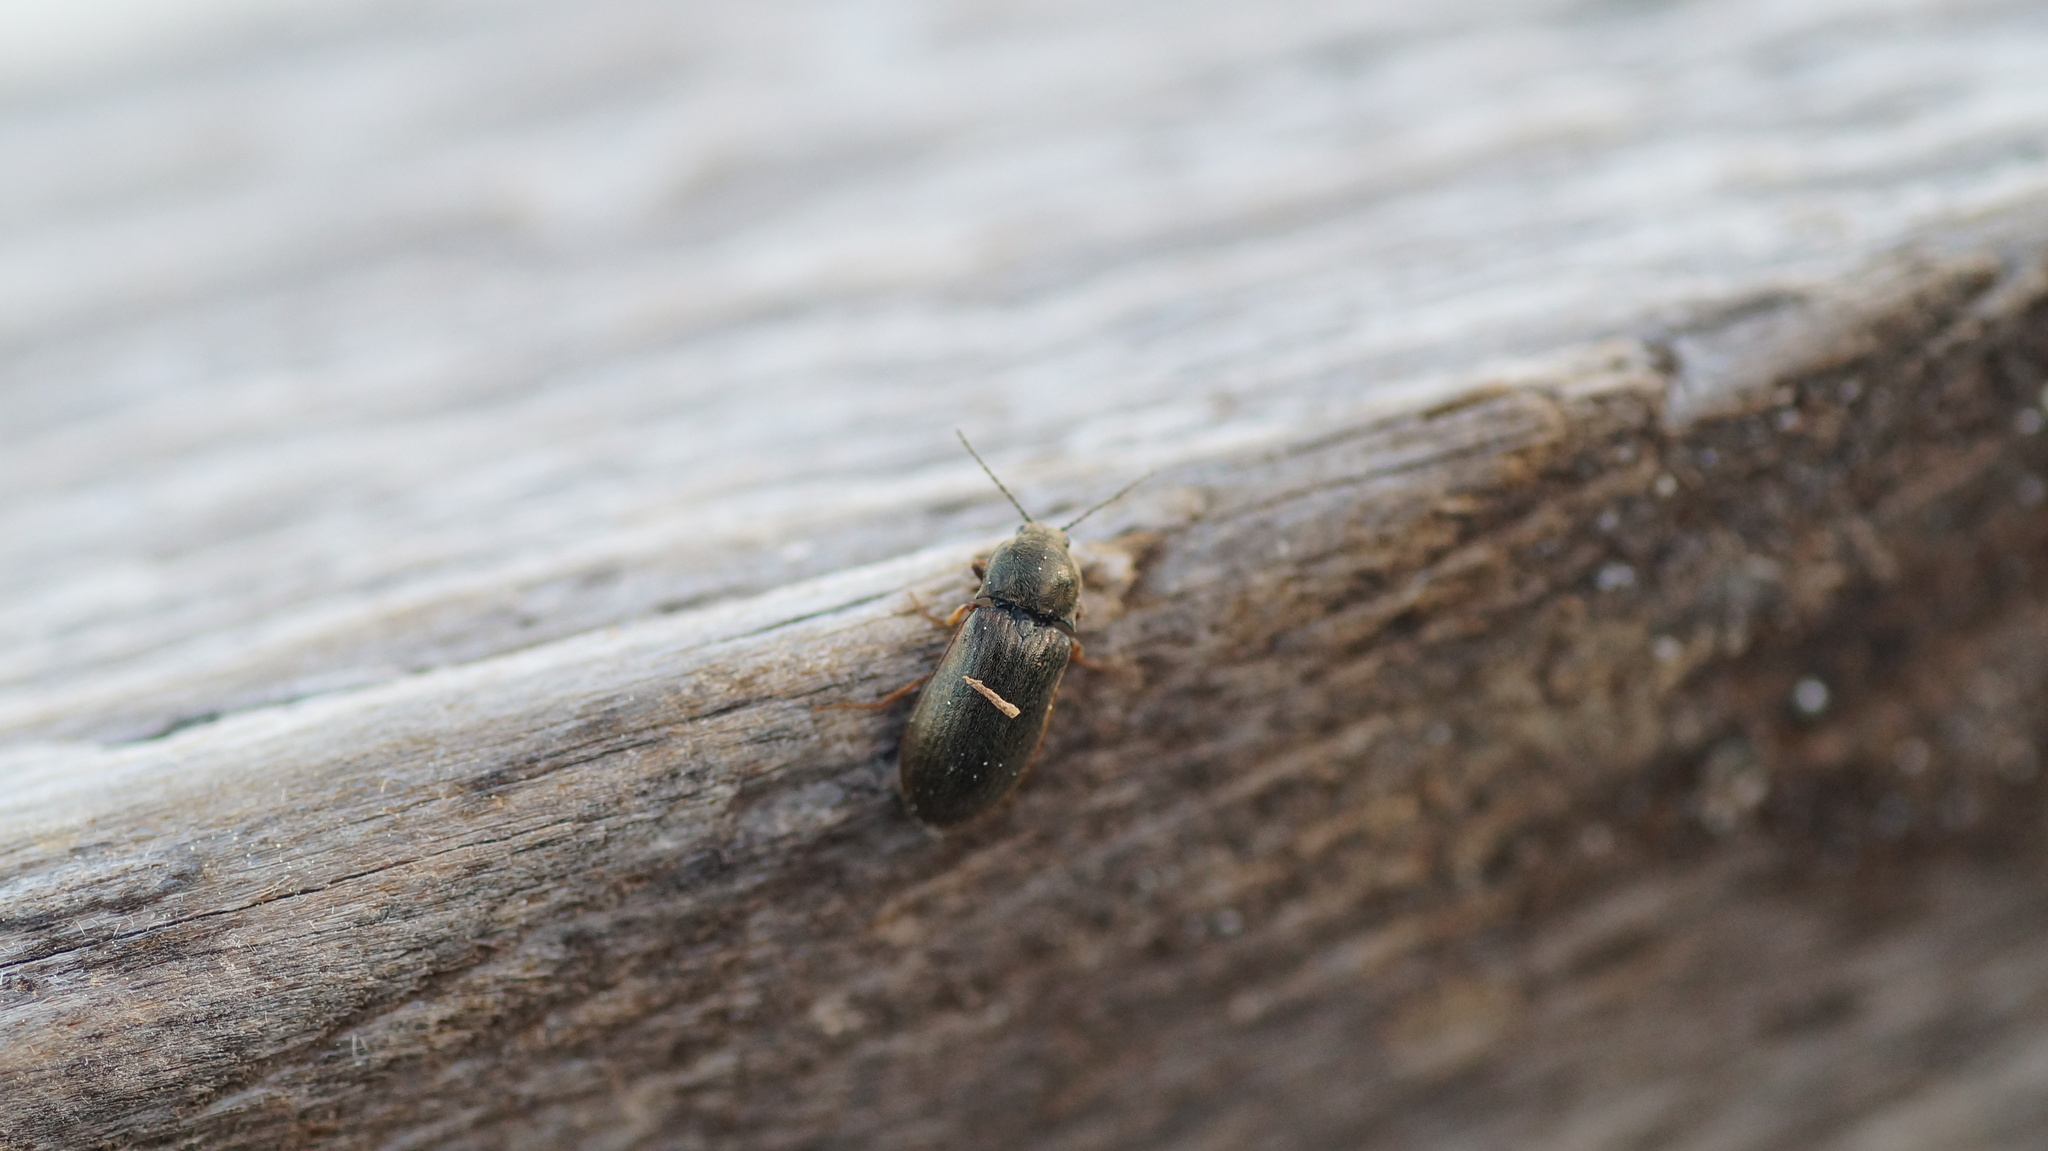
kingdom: Animalia
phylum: Arthropoda
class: Insecta
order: Coleoptera
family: Elateridae
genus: Eanus
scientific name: Eanus costalis
